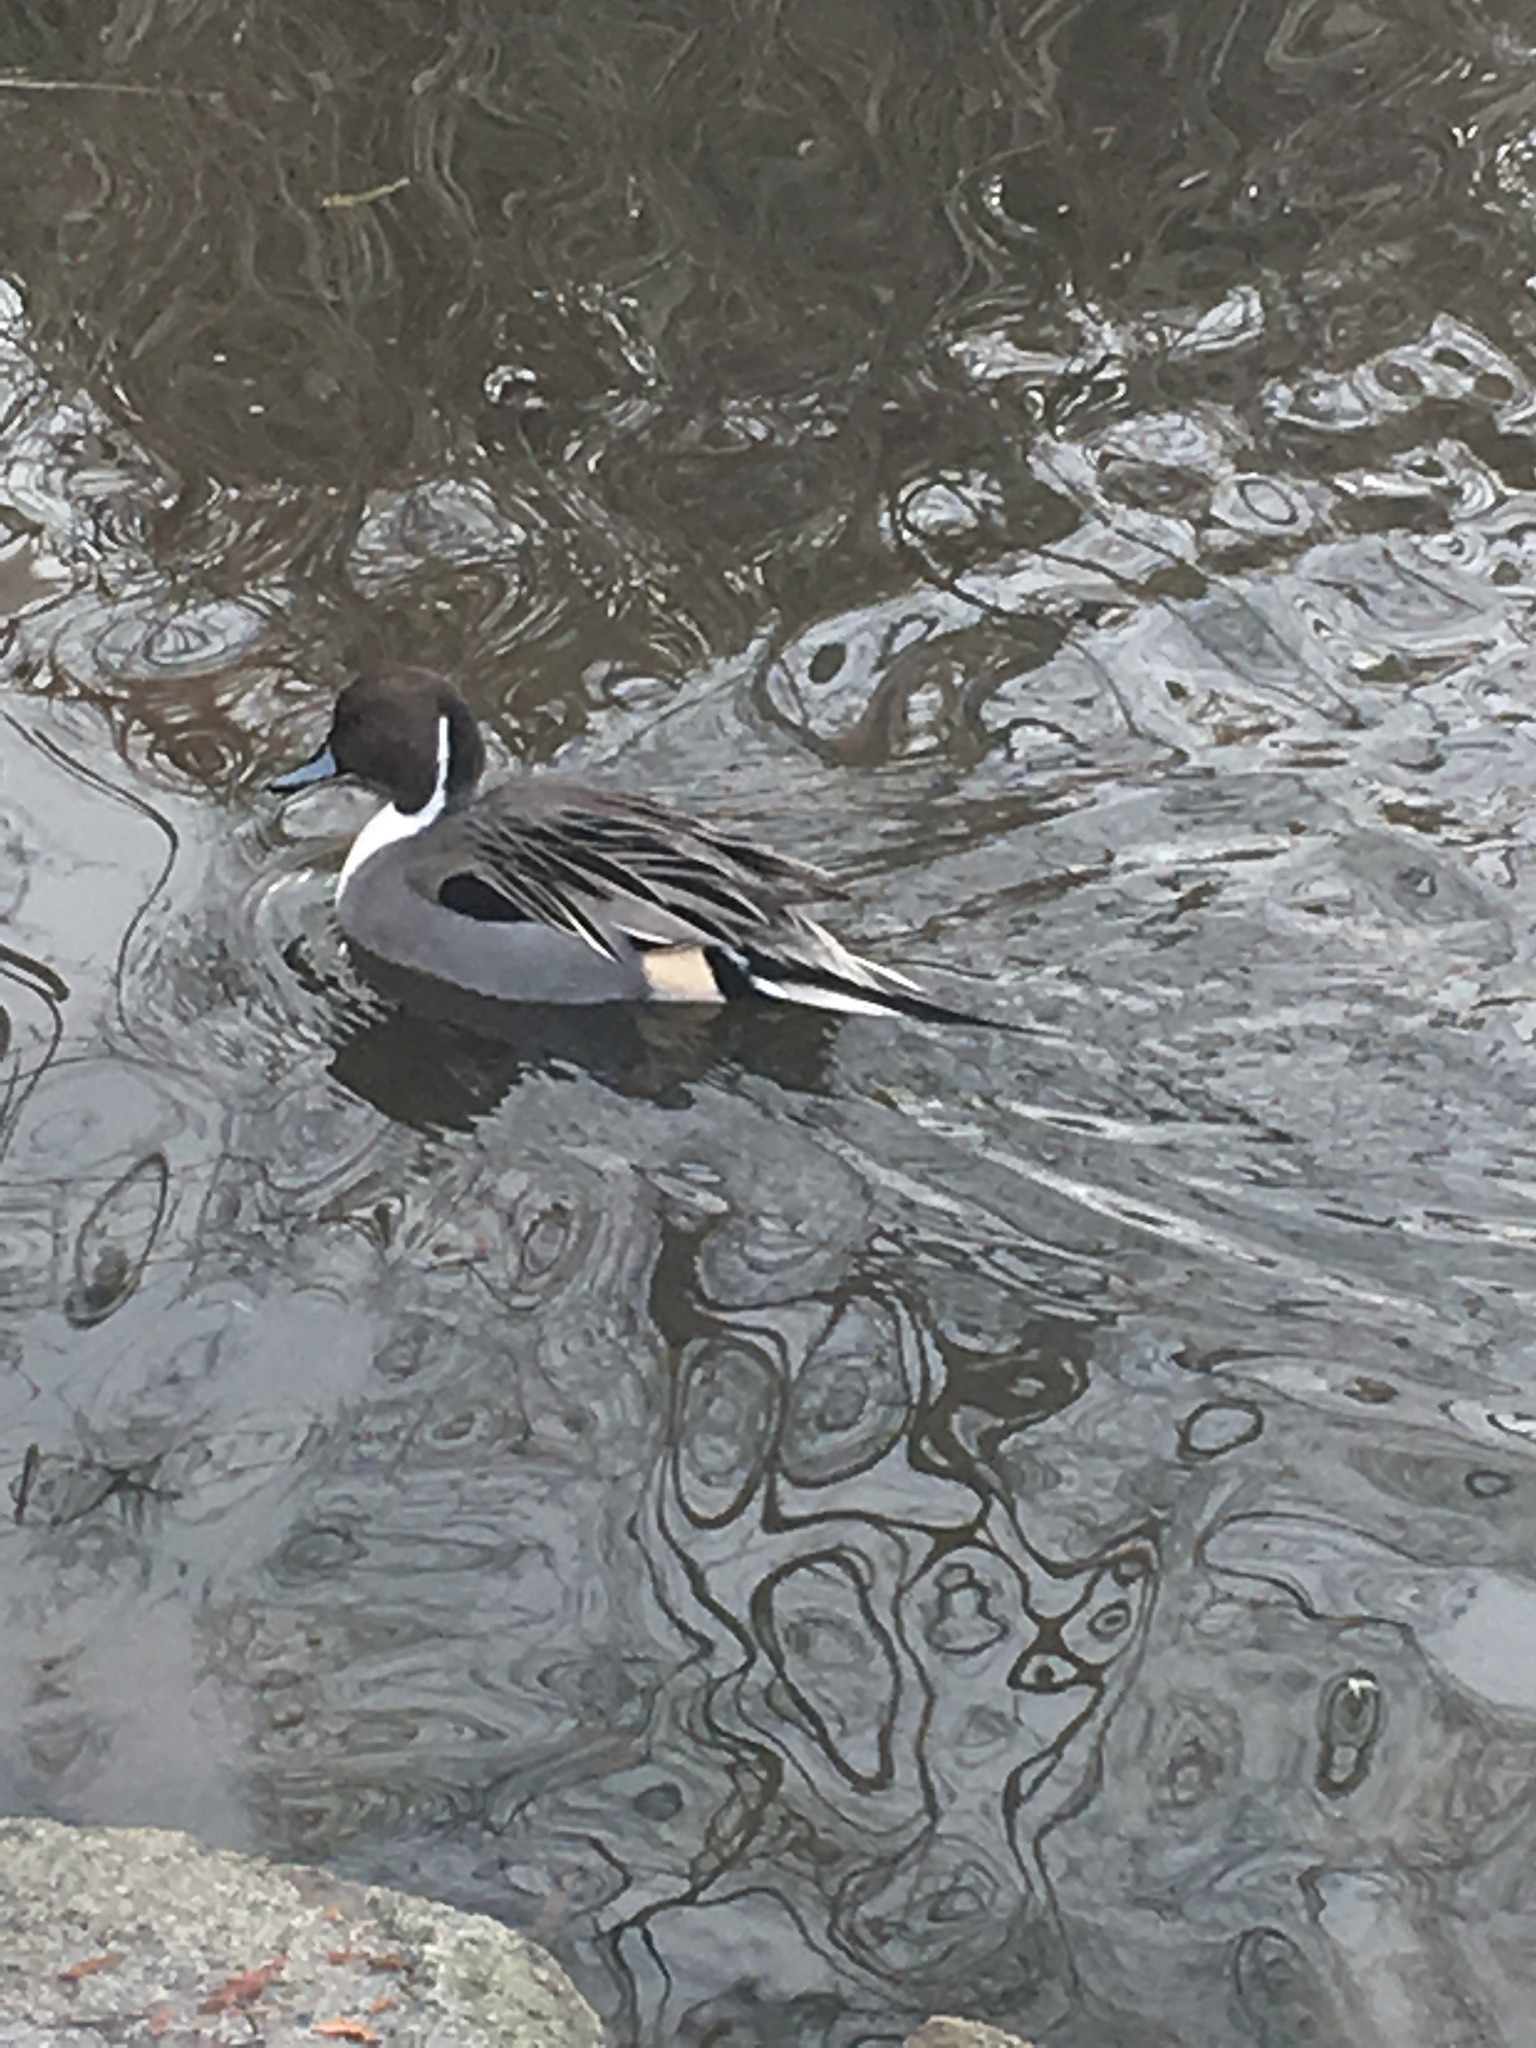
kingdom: Animalia
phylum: Chordata
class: Aves
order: Anseriformes
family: Anatidae
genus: Anas
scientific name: Anas acuta
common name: Northern pintail
